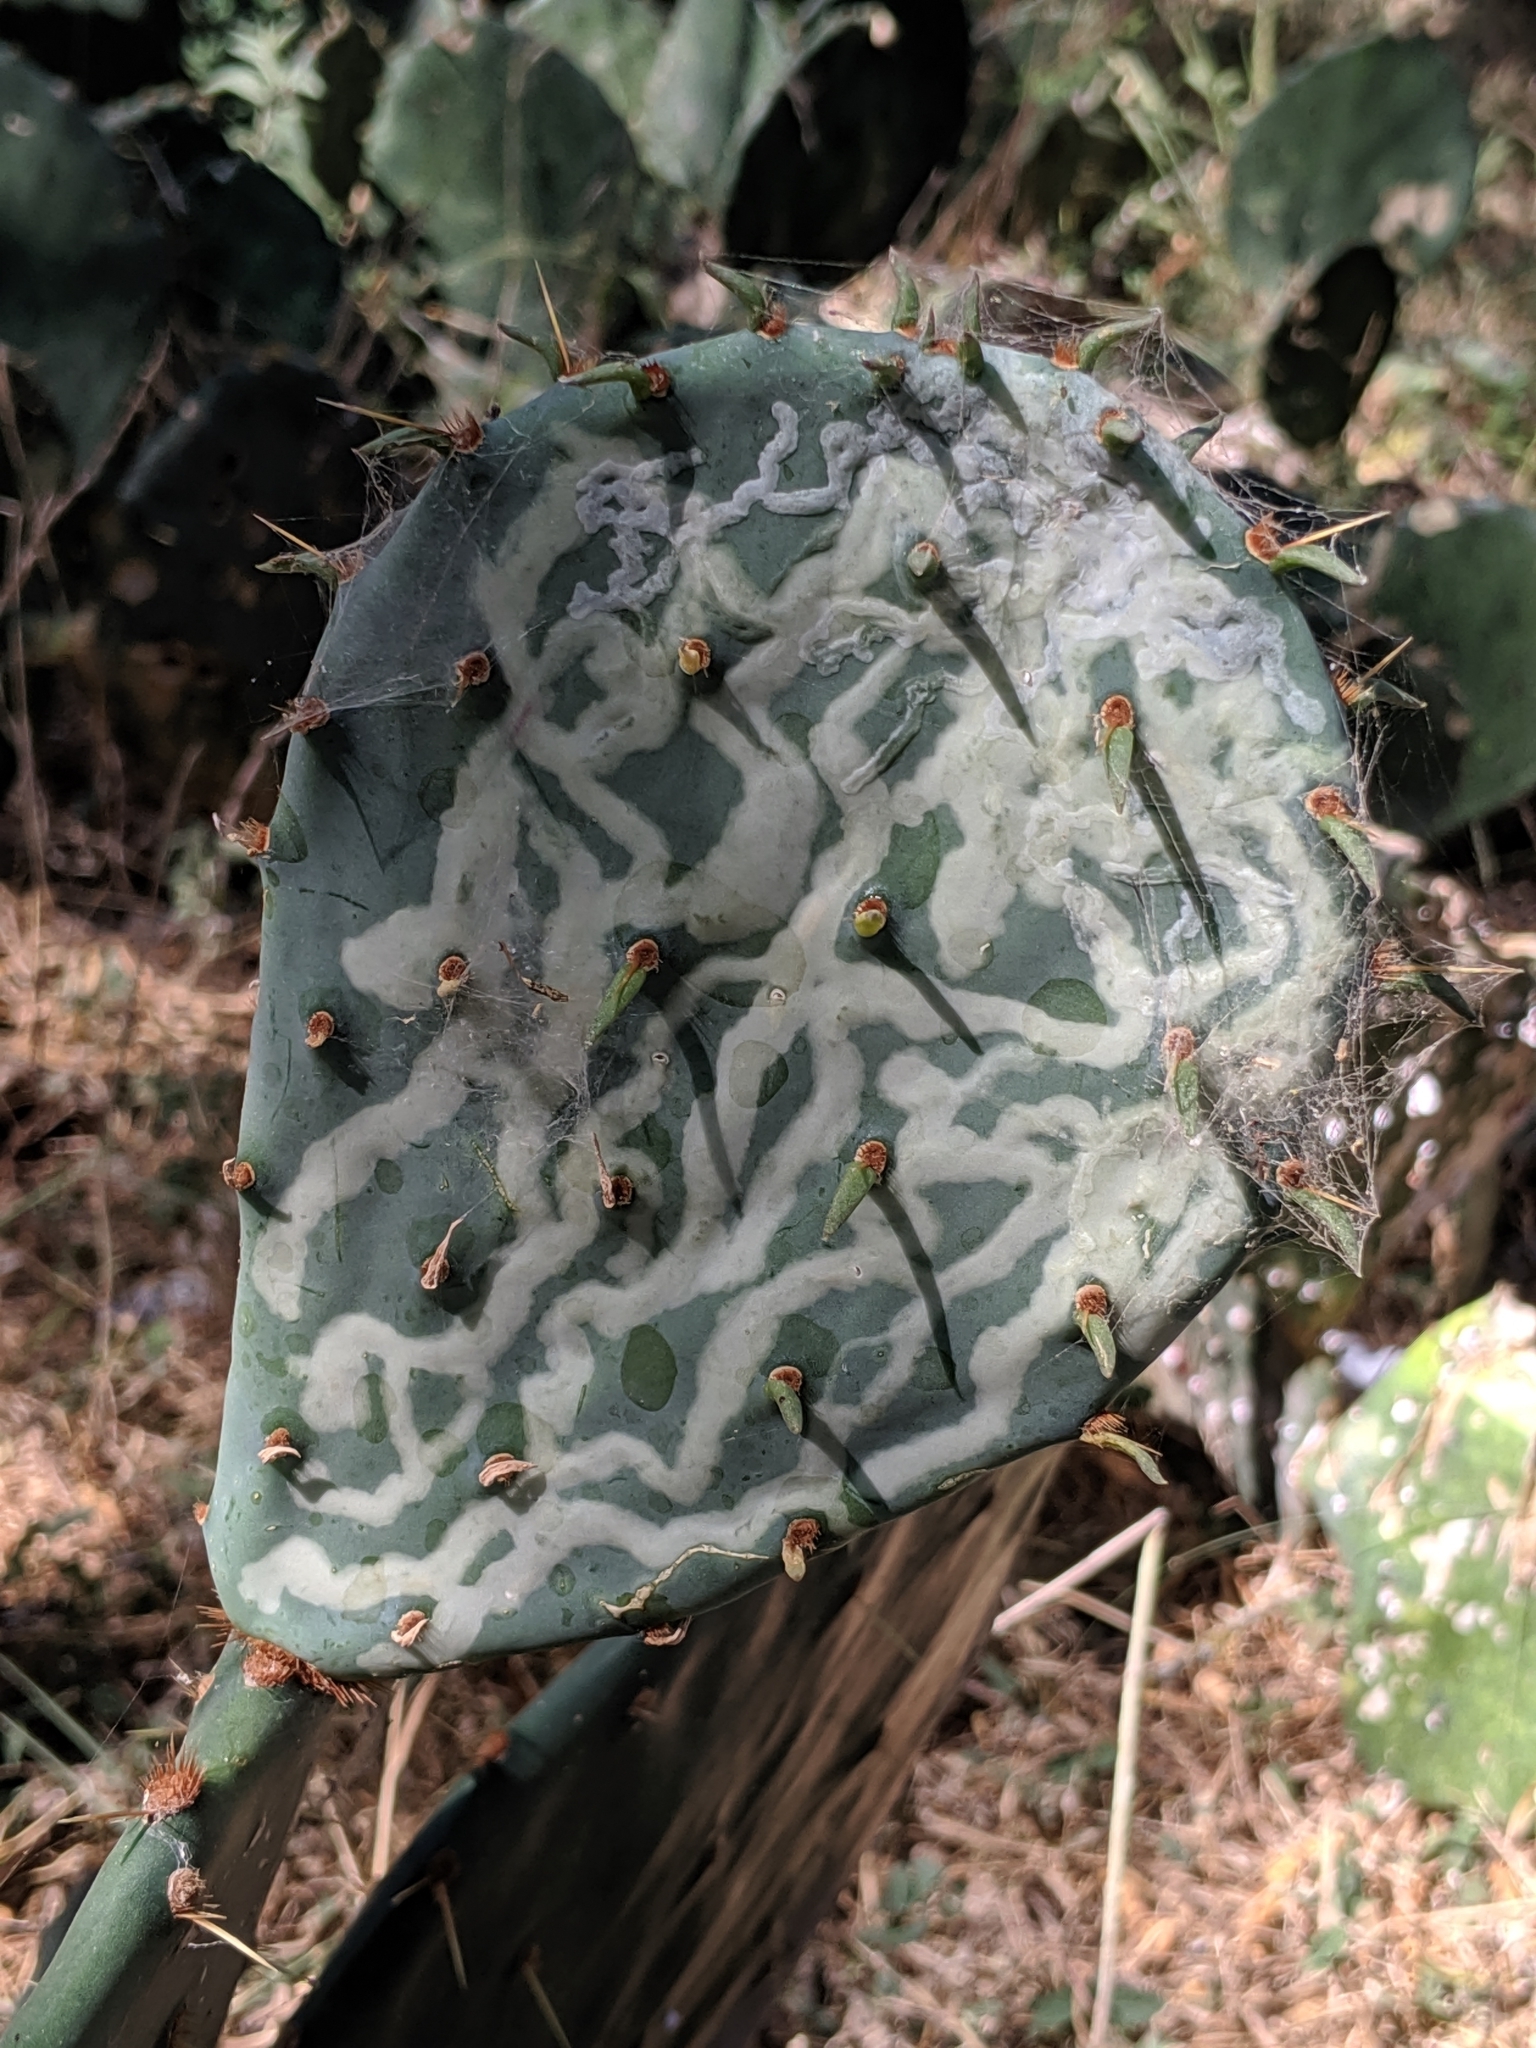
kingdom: Animalia
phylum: Arthropoda
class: Insecta
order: Lepidoptera
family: Gracillariidae
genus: Marmara
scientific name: Marmara opuntiella
